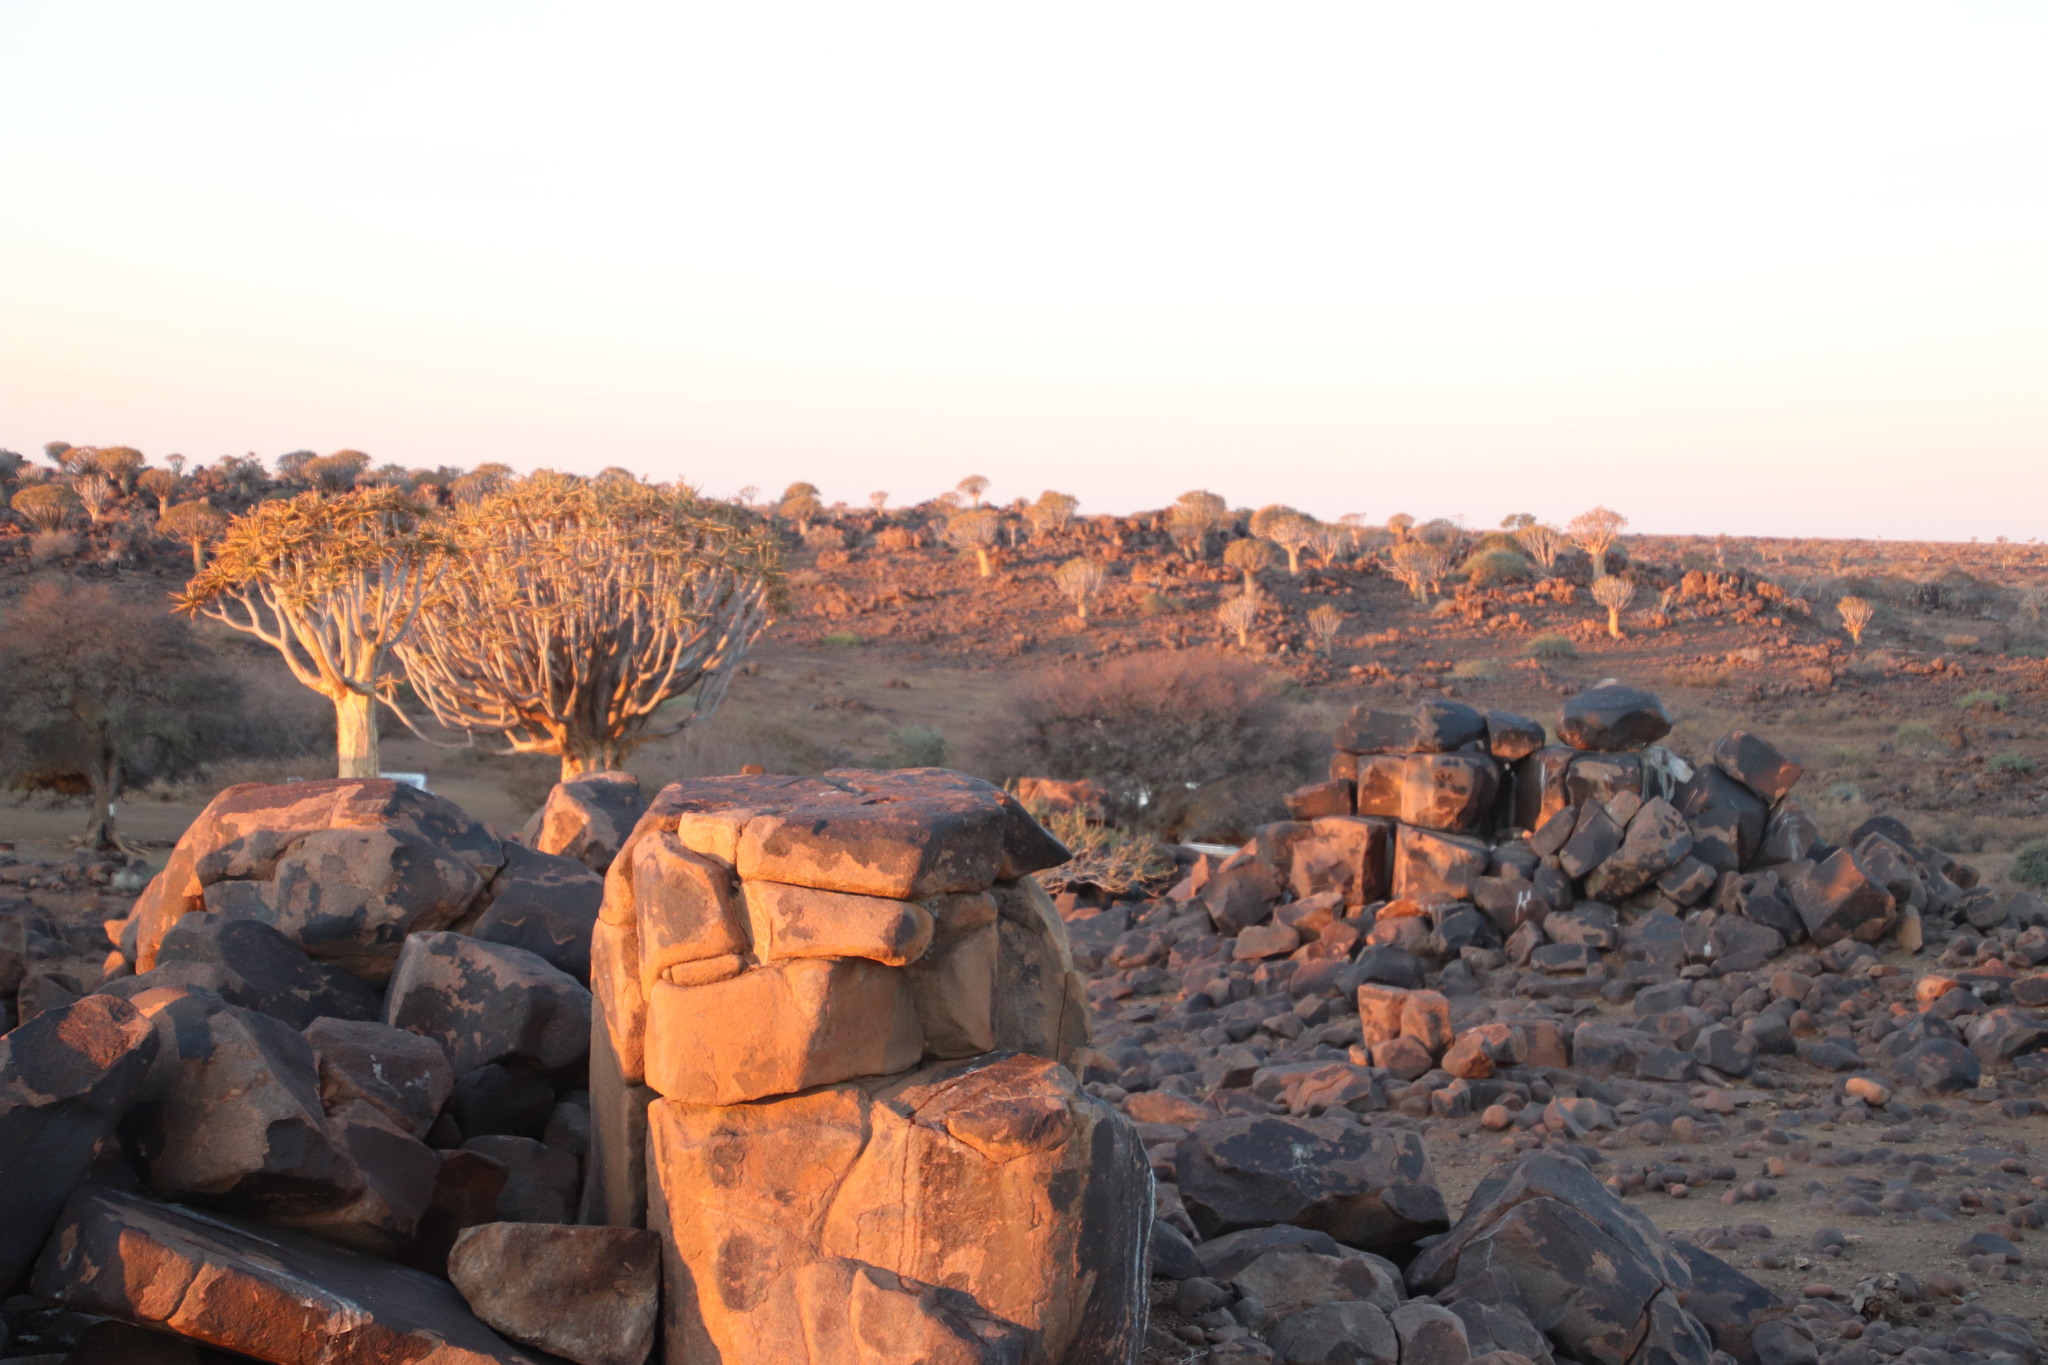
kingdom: Plantae
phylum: Tracheophyta
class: Liliopsida
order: Asparagales
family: Asphodelaceae
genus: Aloidendron
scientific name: Aloidendron dichotomum
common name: Quiver tree
